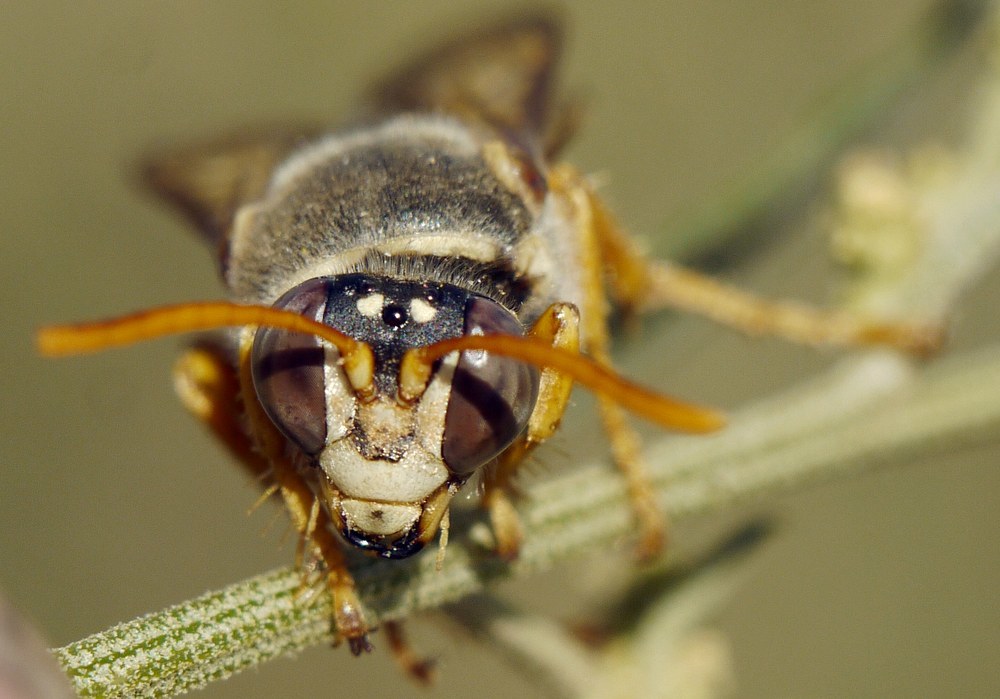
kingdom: Animalia
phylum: Arthropoda
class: Insecta
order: Hymenoptera
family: Crabronidae
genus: Stizus
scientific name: Stizus bipunctatus
